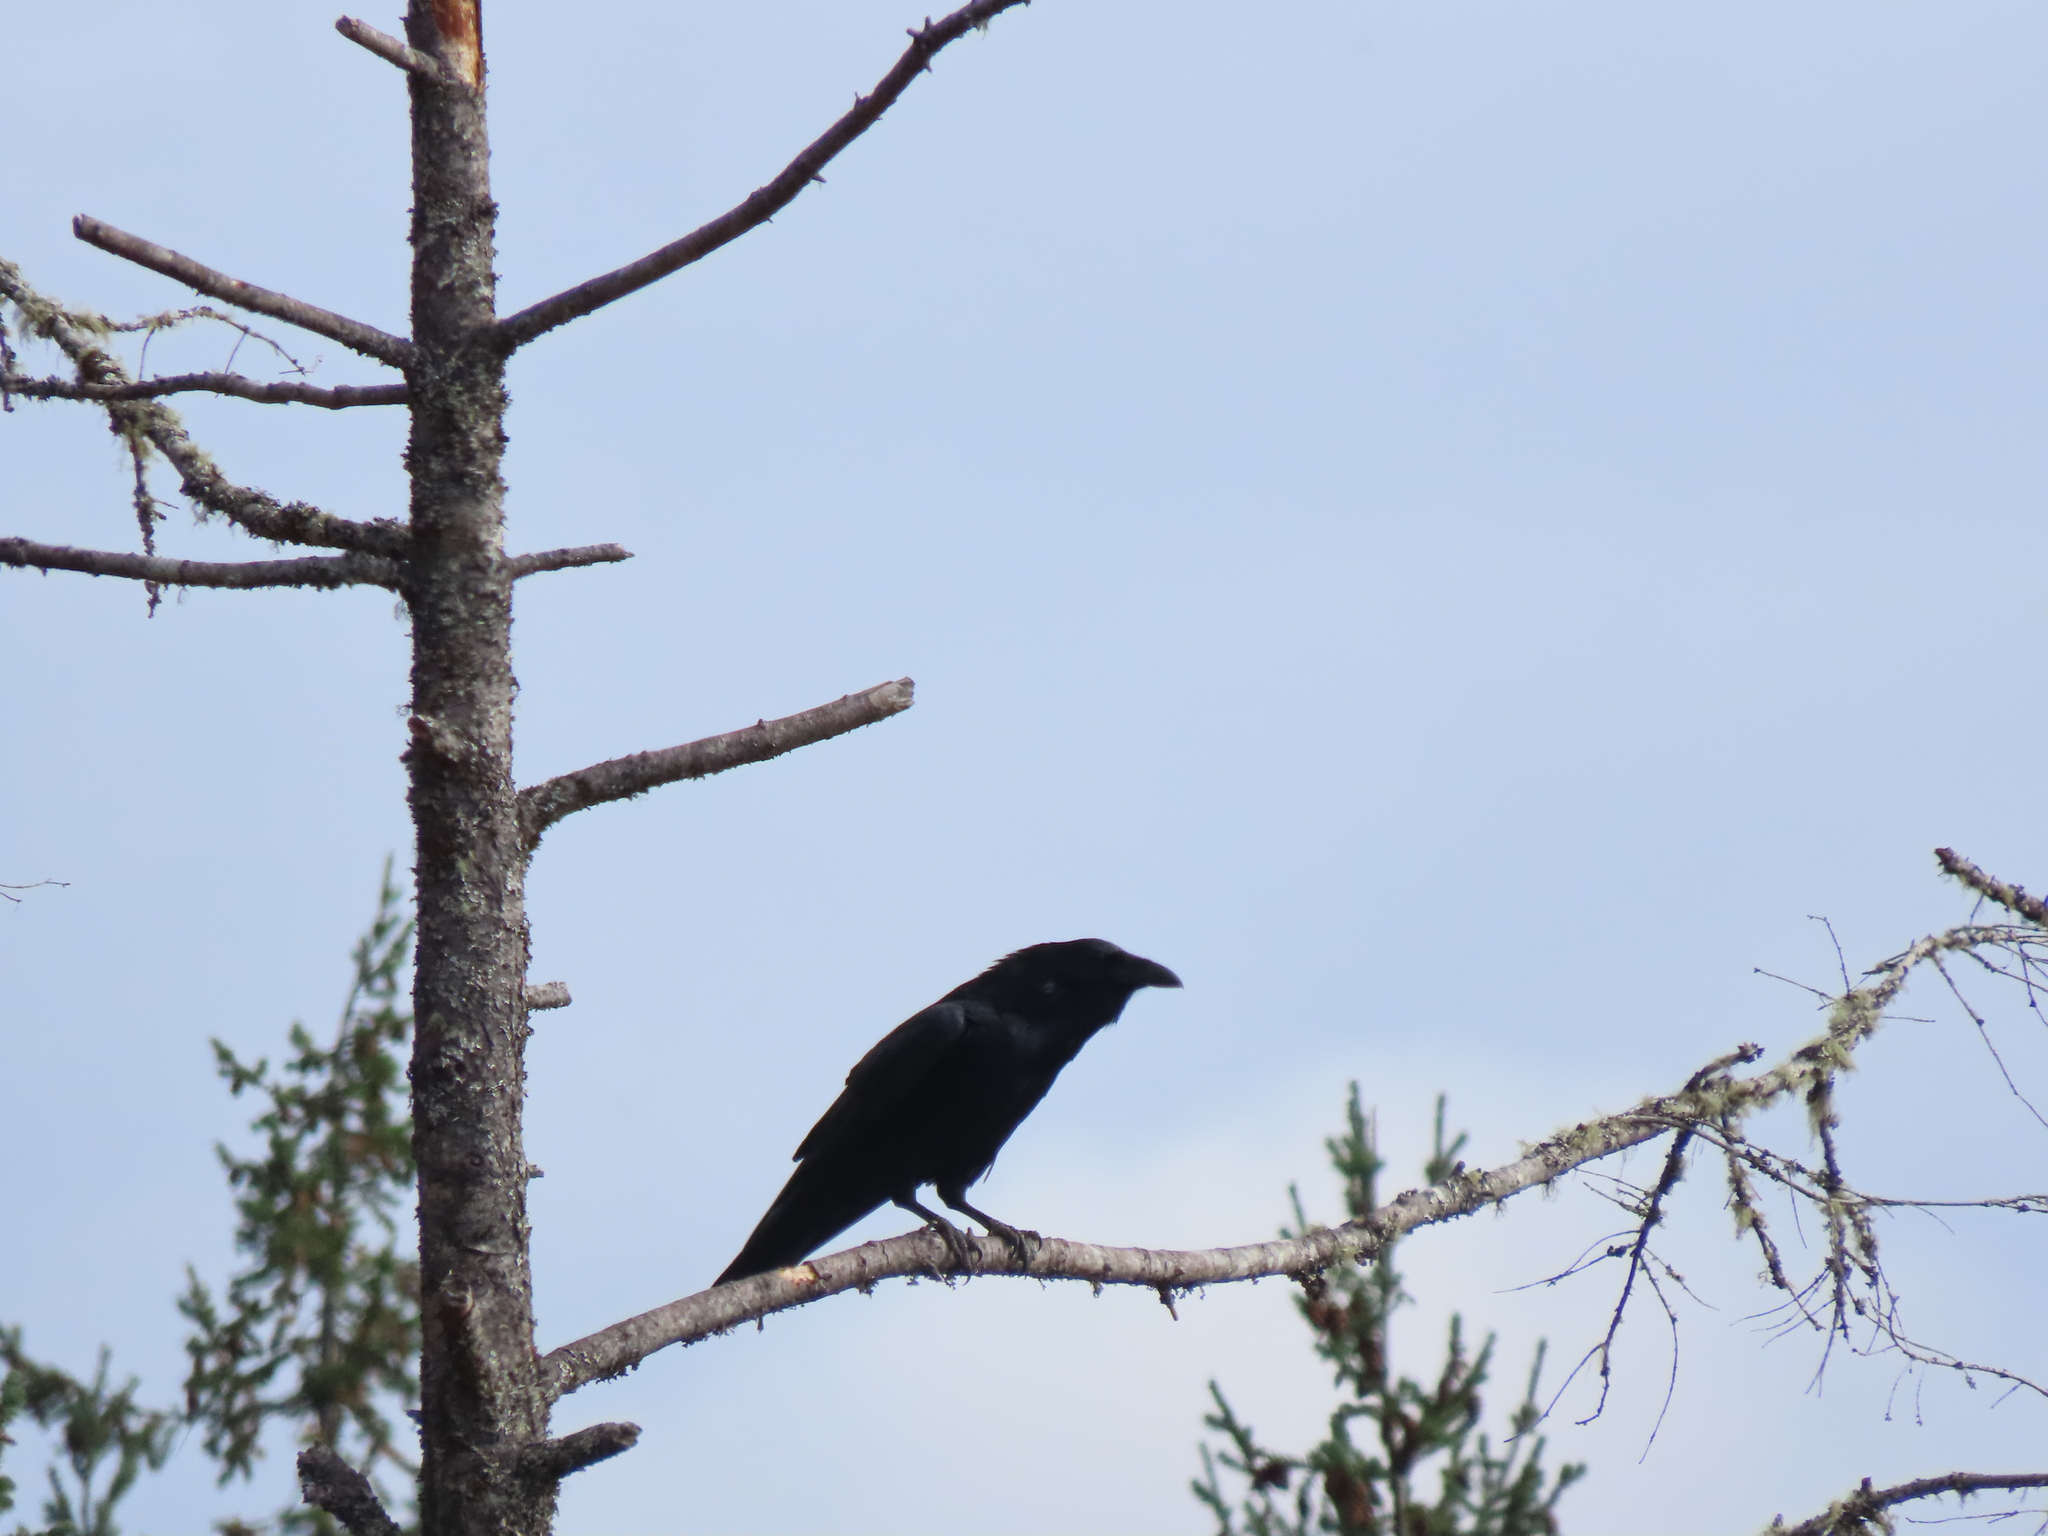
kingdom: Animalia
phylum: Chordata
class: Aves
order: Passeriformes
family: Corvidae
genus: Corvus
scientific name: Corvus corax
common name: Common raven
